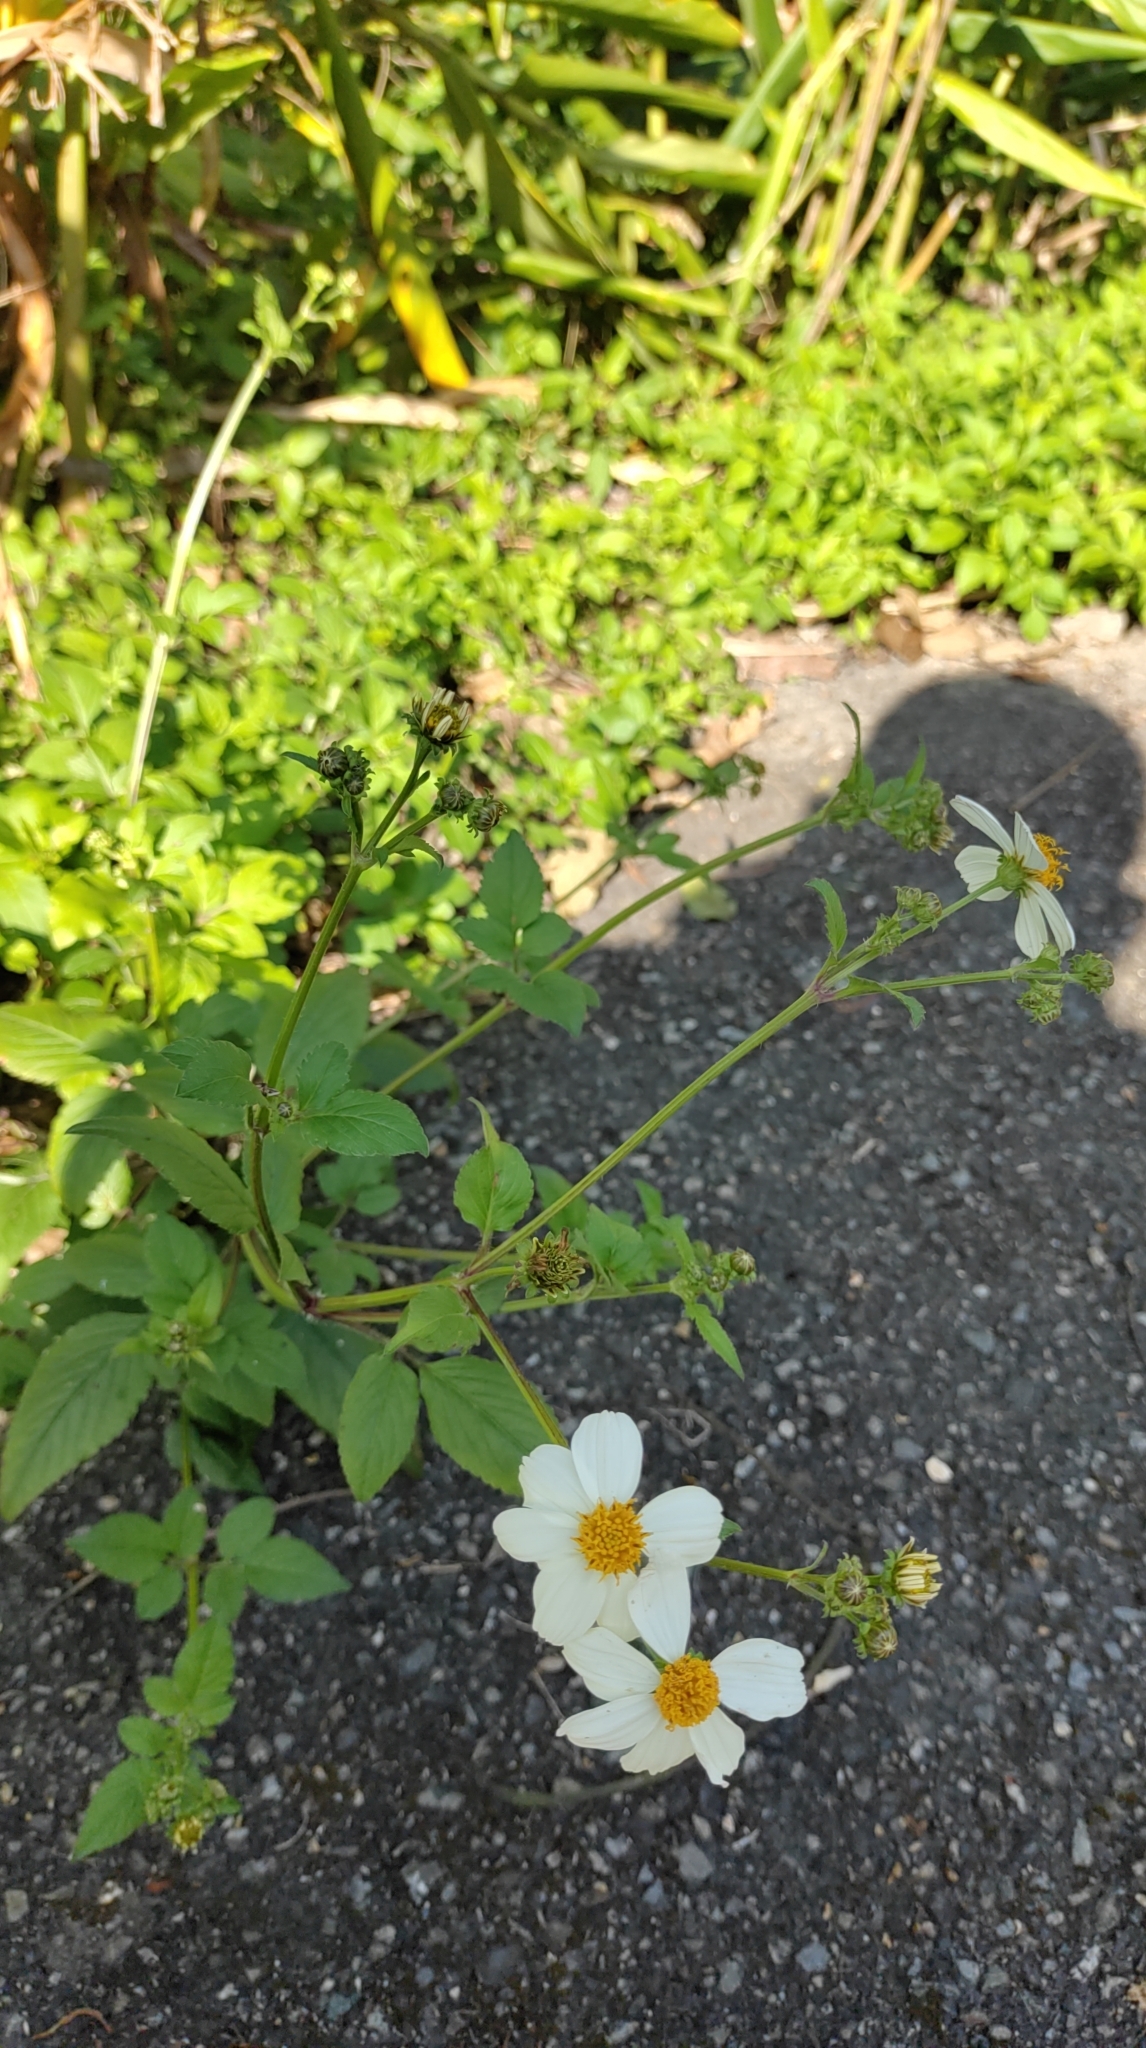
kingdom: Plantae
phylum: Tracheophyta
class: Magnoliopsida
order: Asterales
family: Asteraceae
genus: Bidens
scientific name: Bidens alba
